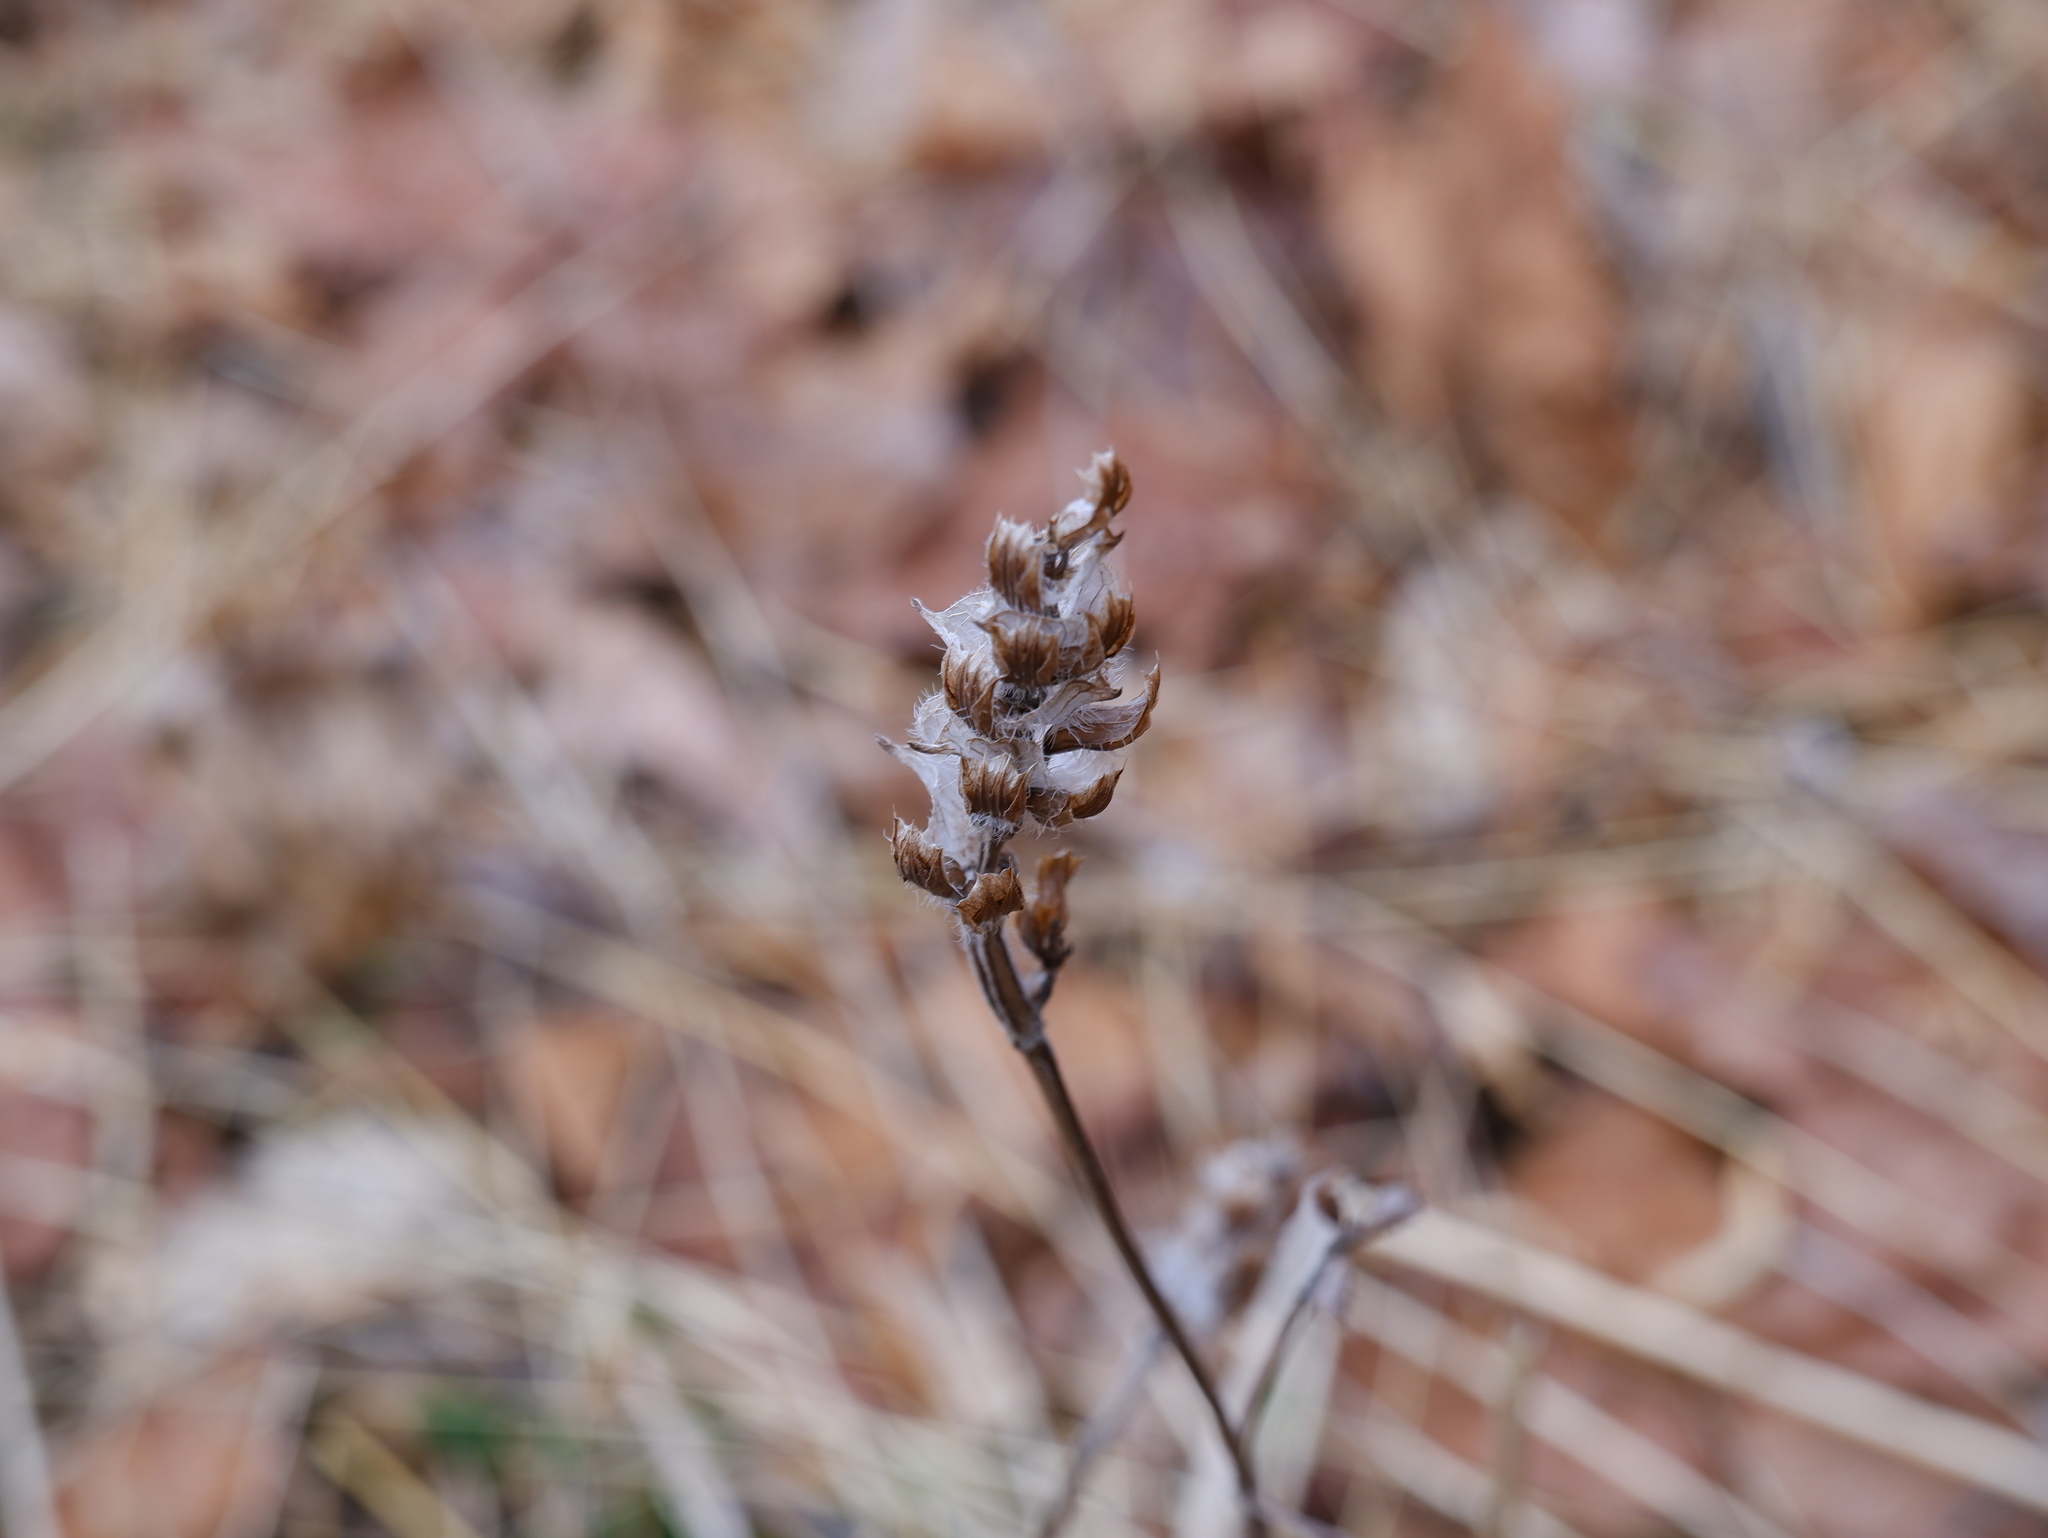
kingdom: Plantae
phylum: Tracheophyta
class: Magnoliopsida
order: Lamiales
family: Lamiaceae
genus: Prunella
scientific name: Prunella vulgaris
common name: Heal-all
